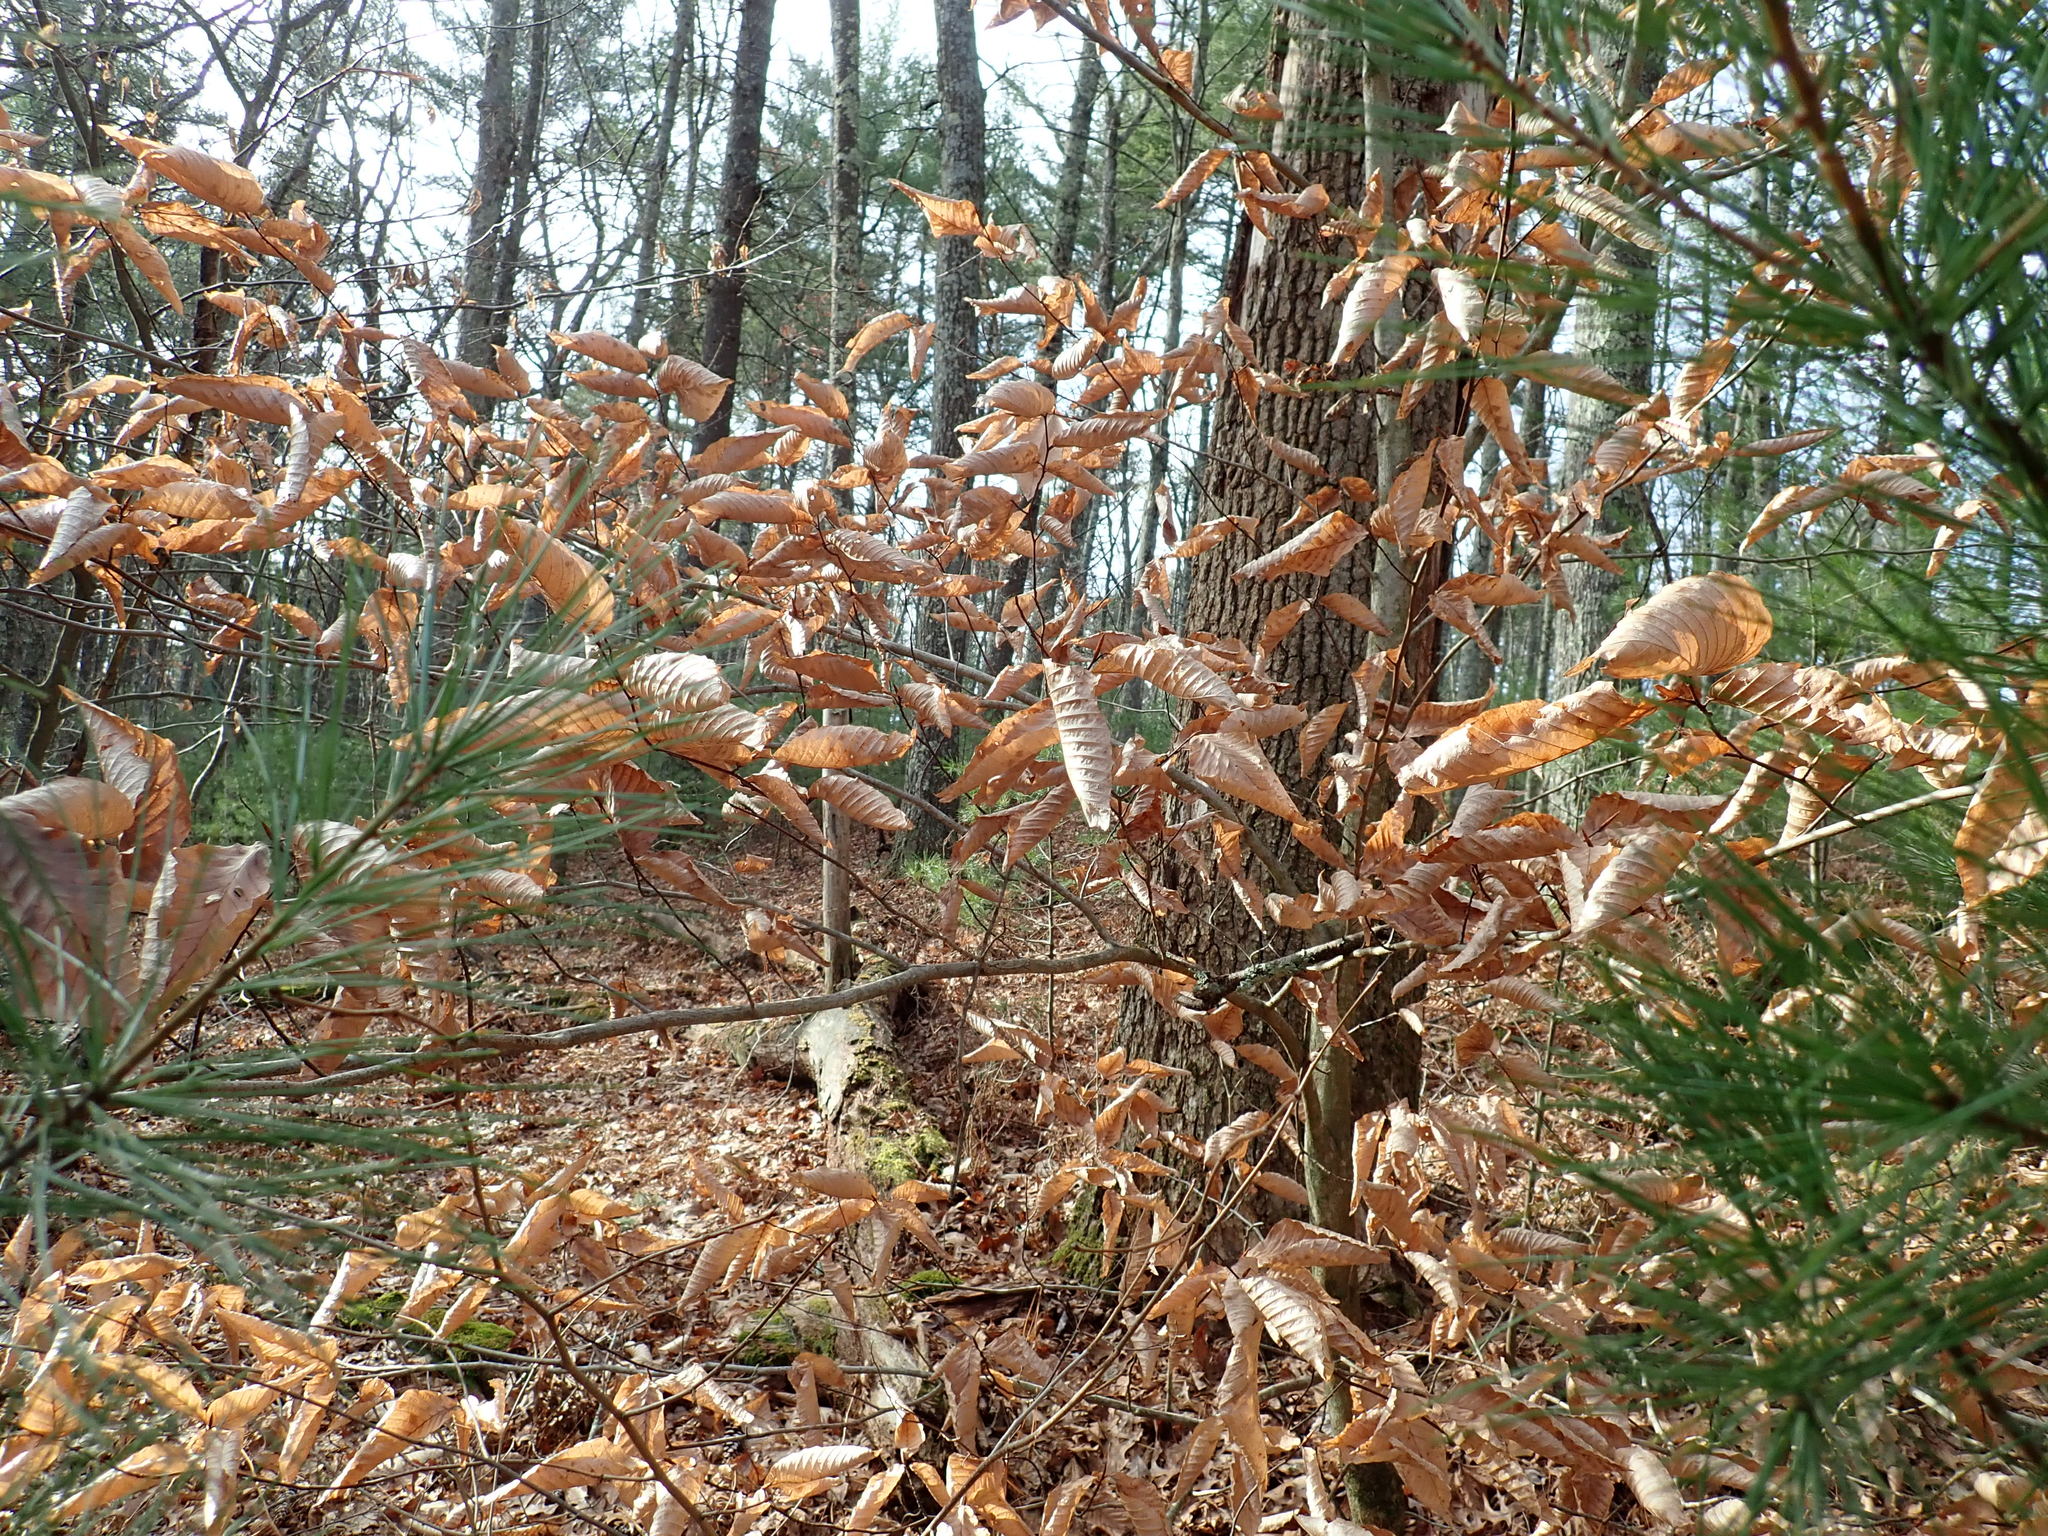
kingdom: Plantae
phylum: Tracheophyta
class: Magnoliopsida
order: Fagales
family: Fagaceae
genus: Fagus
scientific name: Fagus grandifolia
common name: American beech
